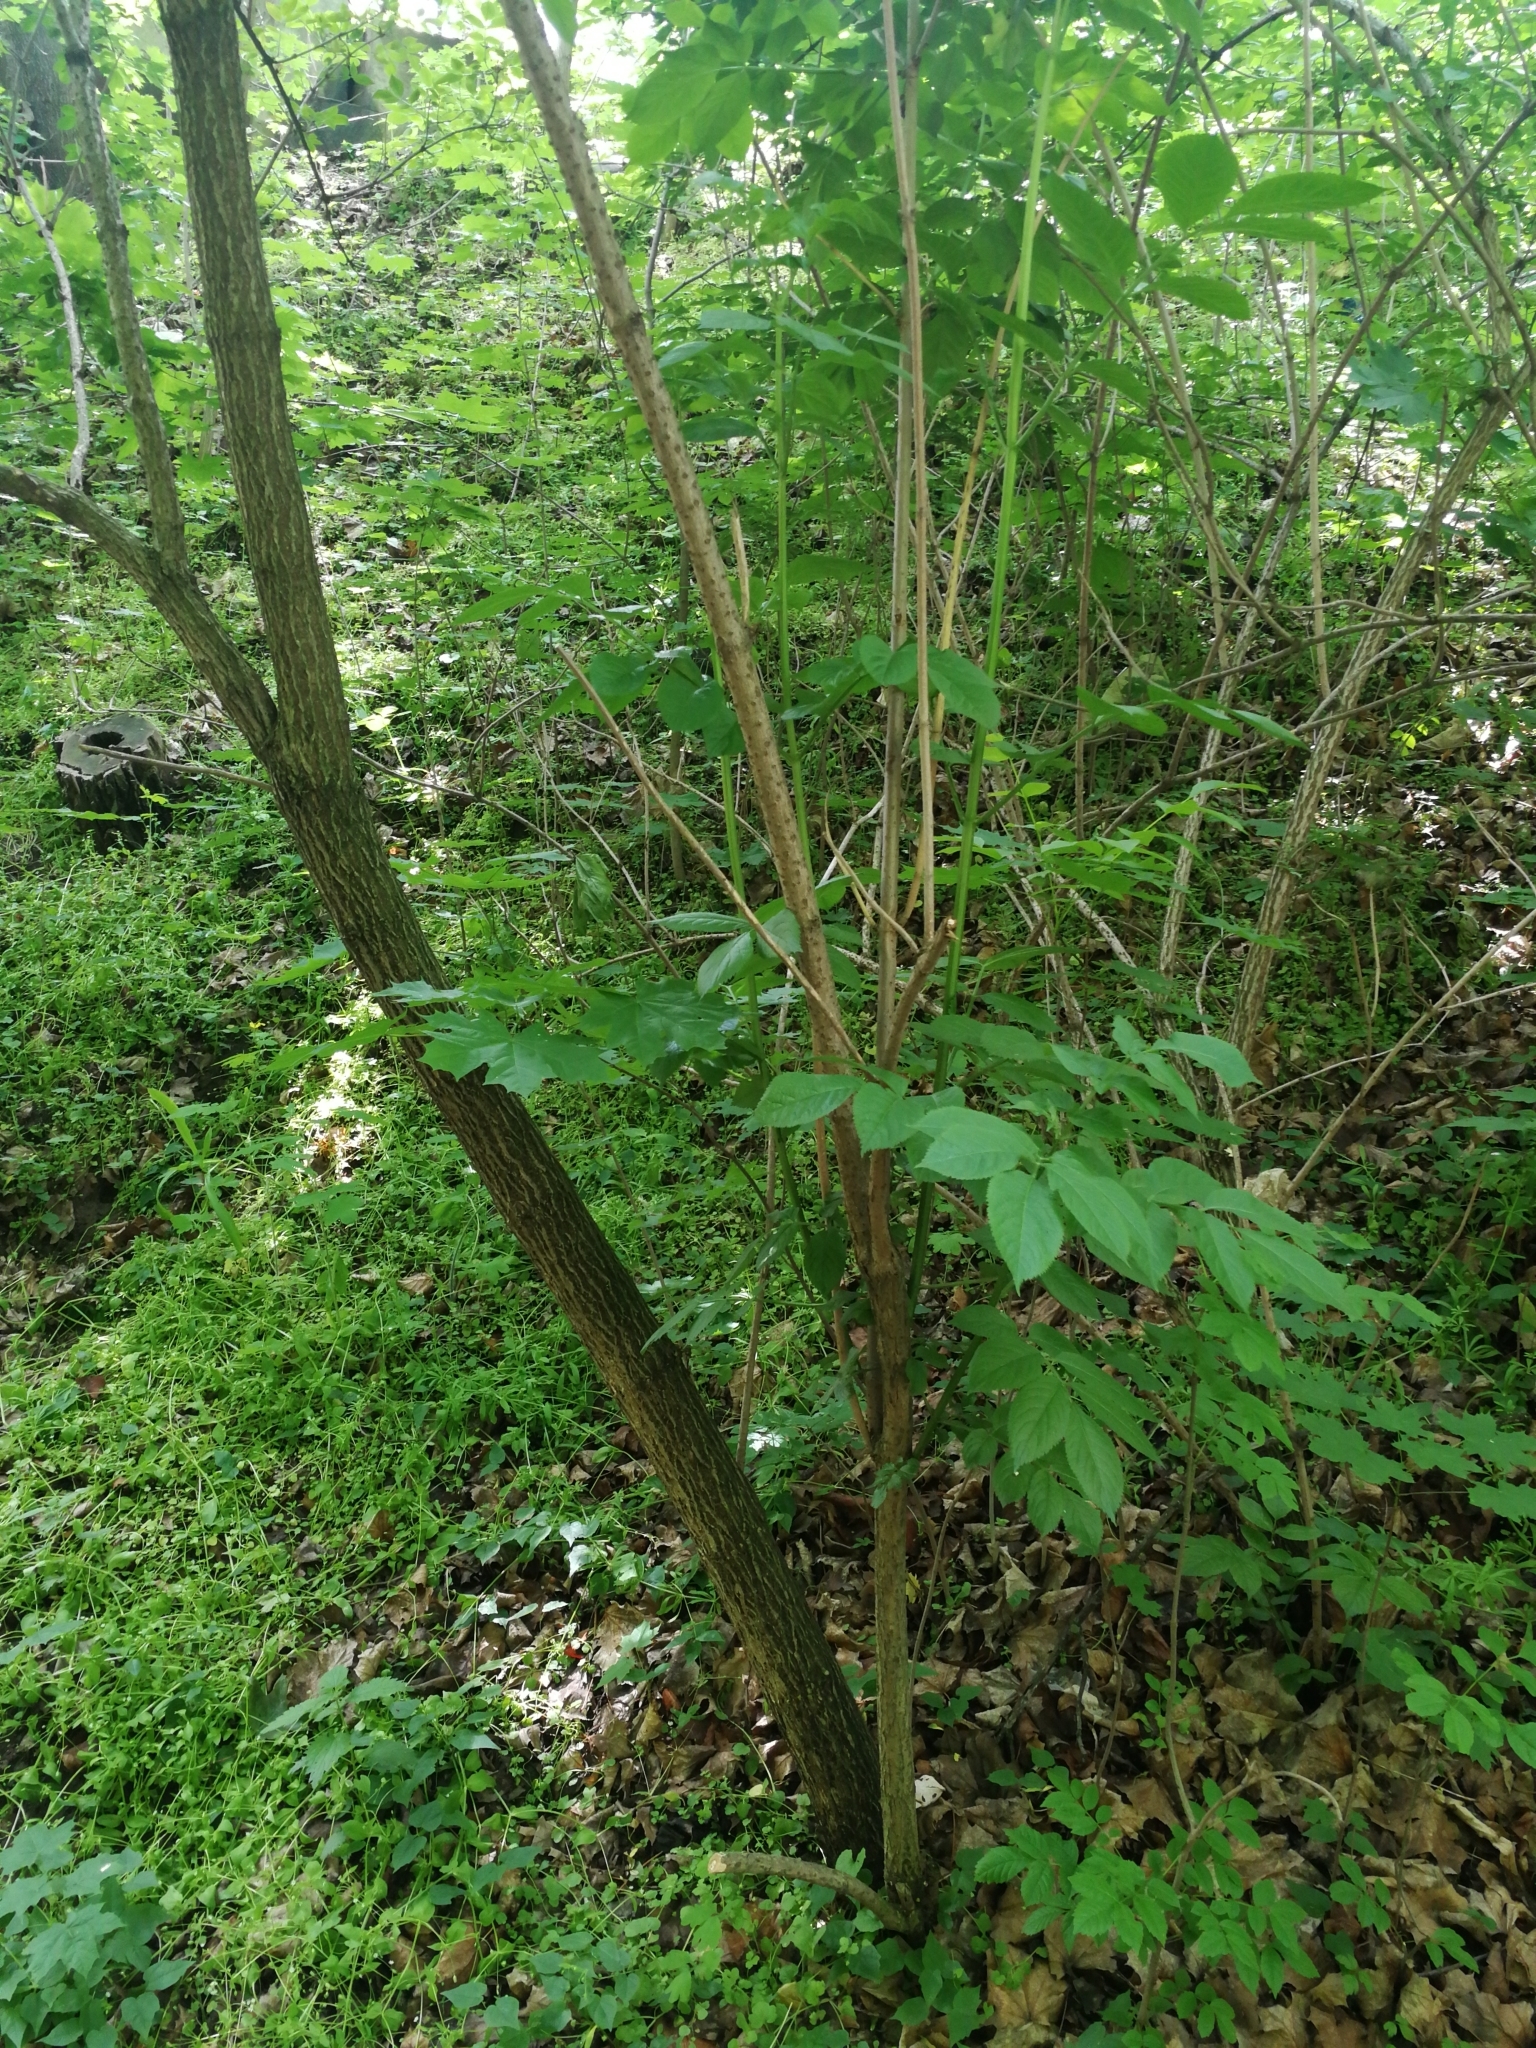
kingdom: Plantae
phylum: Tracheophyta
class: Magnoliopsida
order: Dipsacales
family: Viburnaceae
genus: Sambucus
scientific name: Sambucus nigra
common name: Elder
